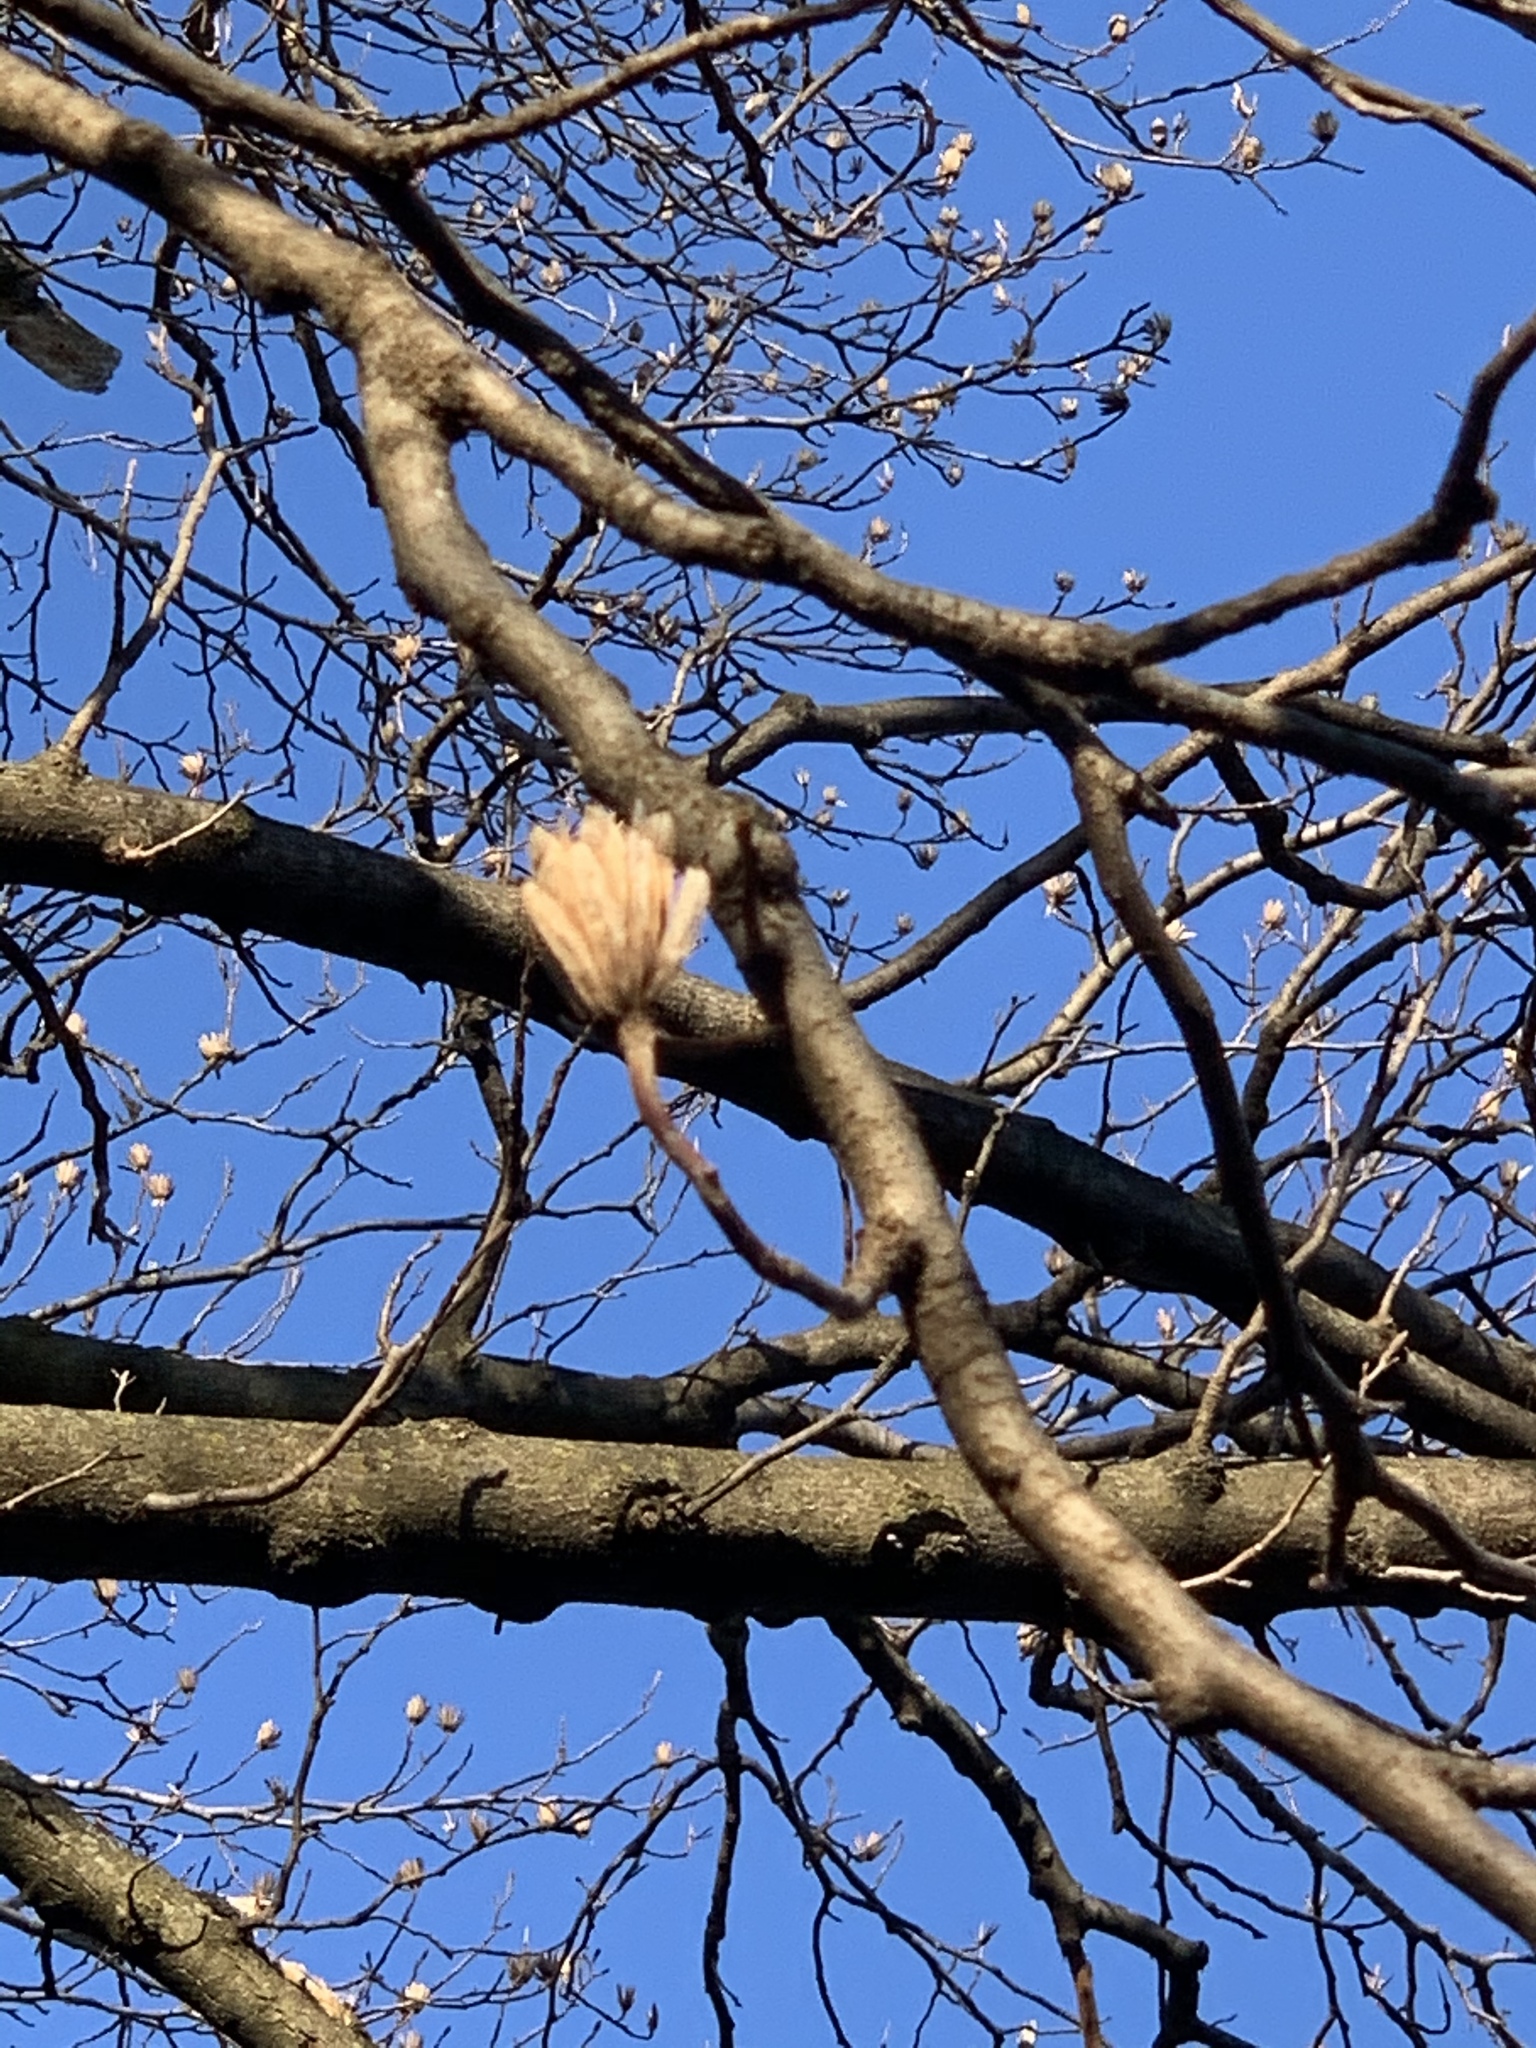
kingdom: Plantae
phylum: Tracheophyta
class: Magnoliopsida
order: Magnoliales
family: Magnoliaceae
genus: Liriodendron
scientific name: Liriodendron tulipifera
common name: Tulip tree
